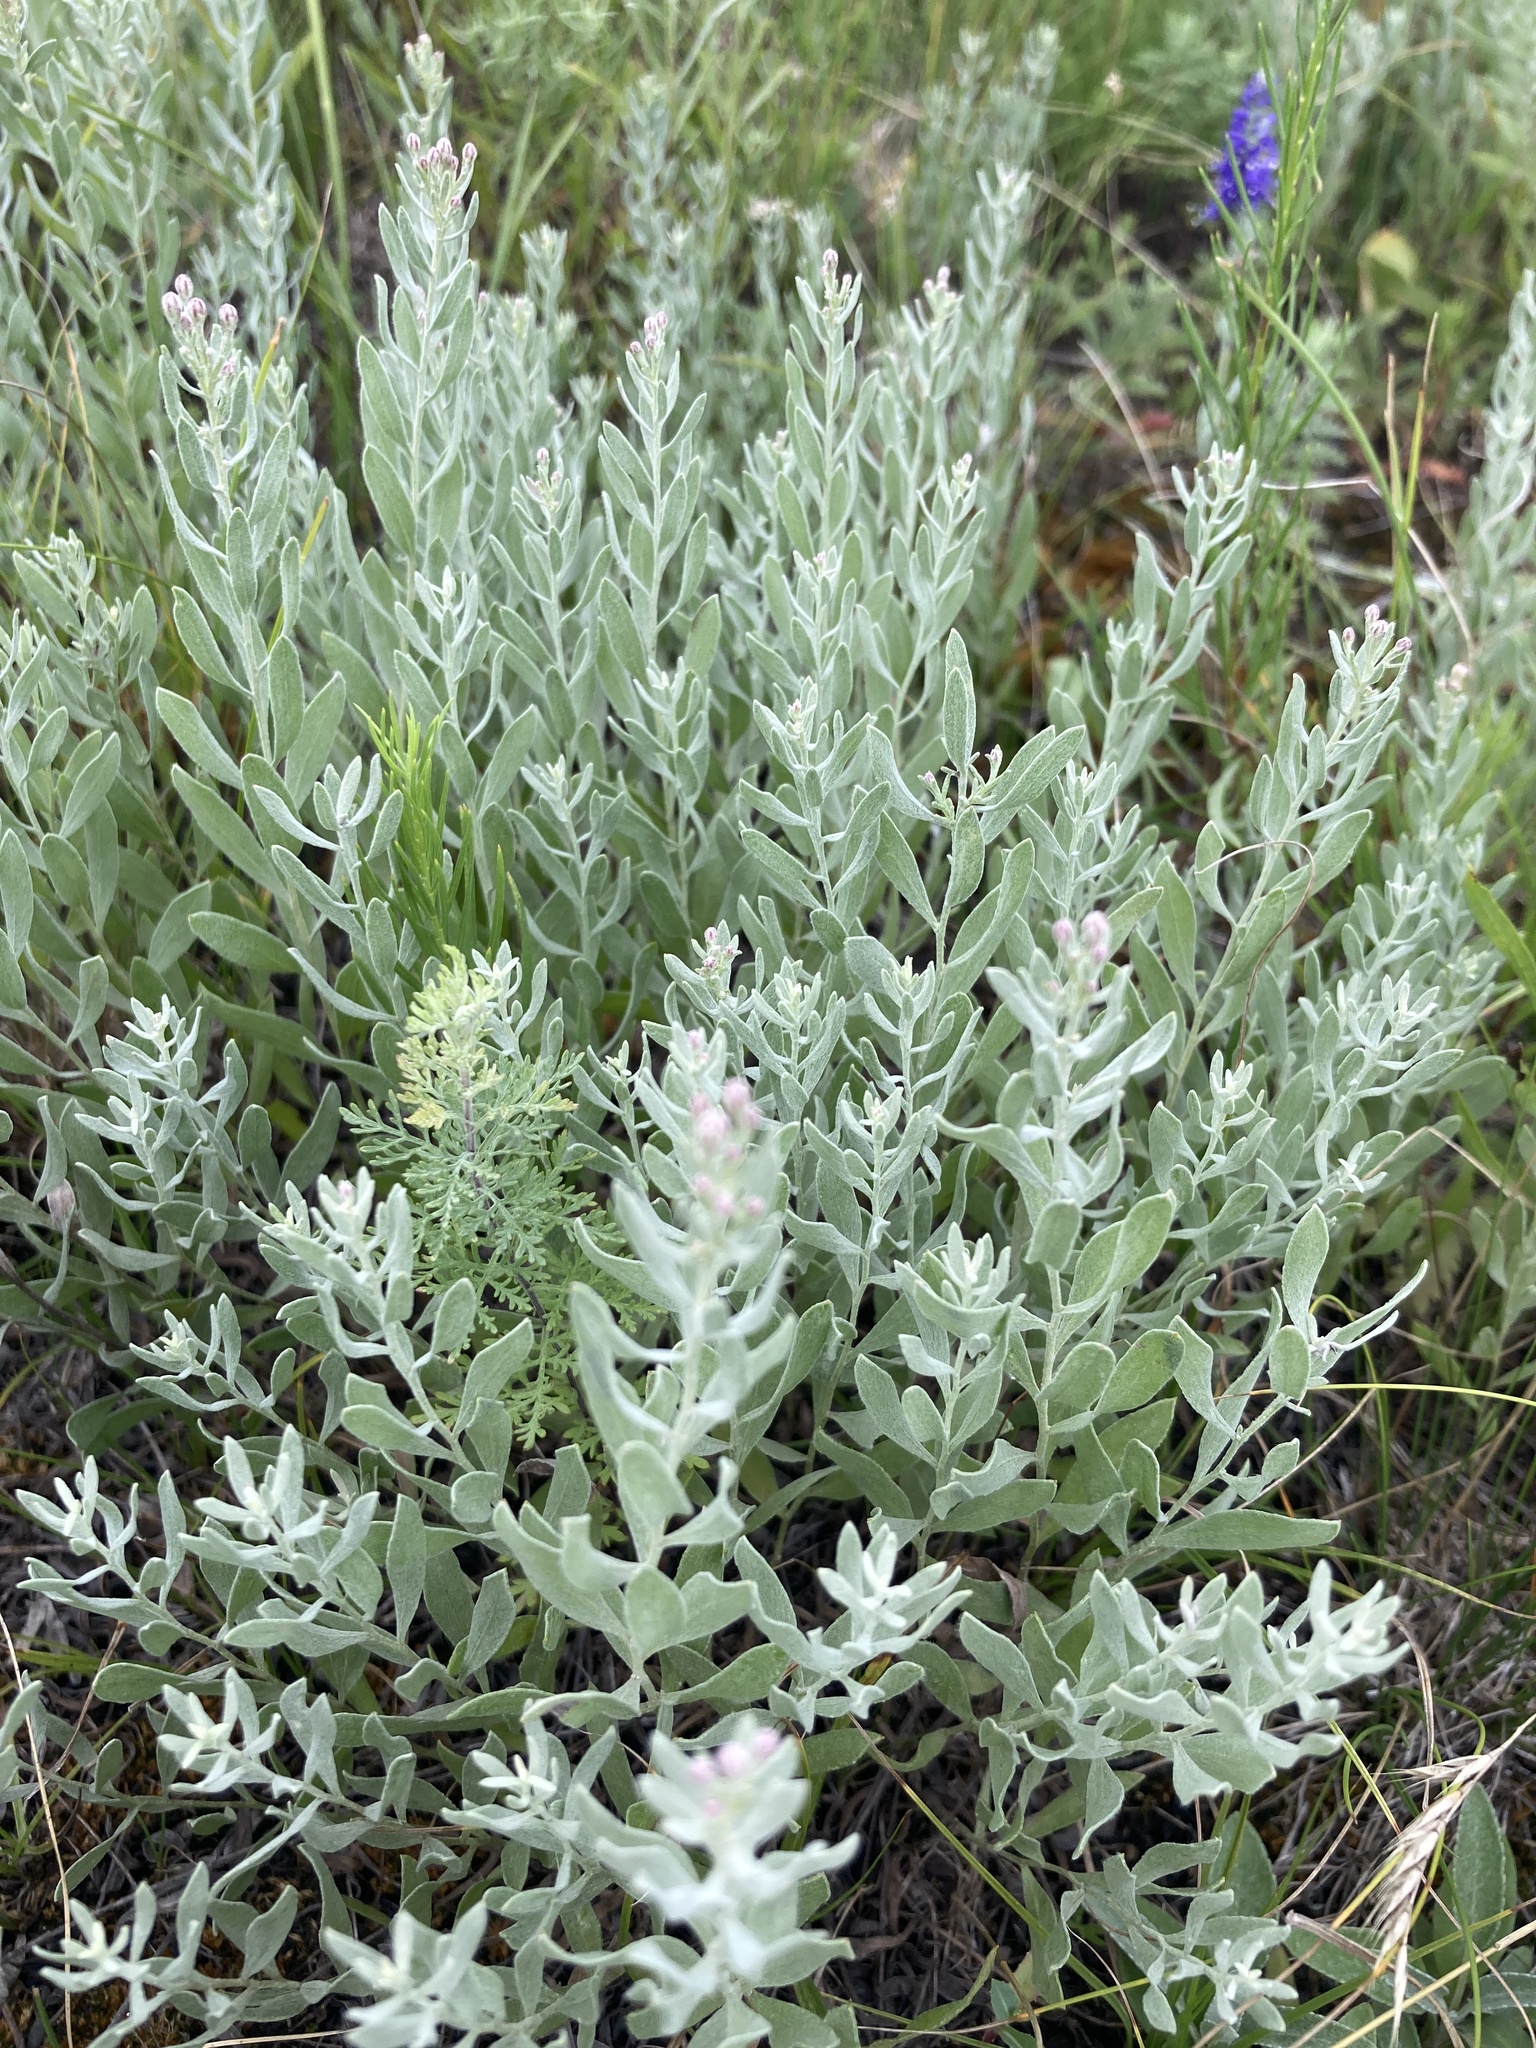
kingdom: Plantae
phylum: Tracheophyta
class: Magnoliopsida
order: Asterales
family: Asteraceae
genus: Galatella
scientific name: Galatella villosa
